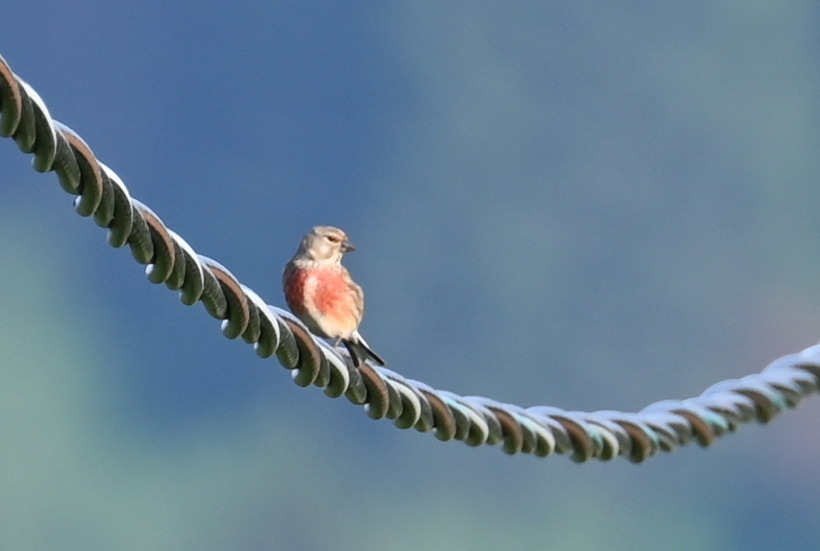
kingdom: Animalia
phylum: Chordata
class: Aves
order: Passeriformes
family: Fringillidae
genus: Linaria
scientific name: Linaria cannabina
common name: Common linnet
